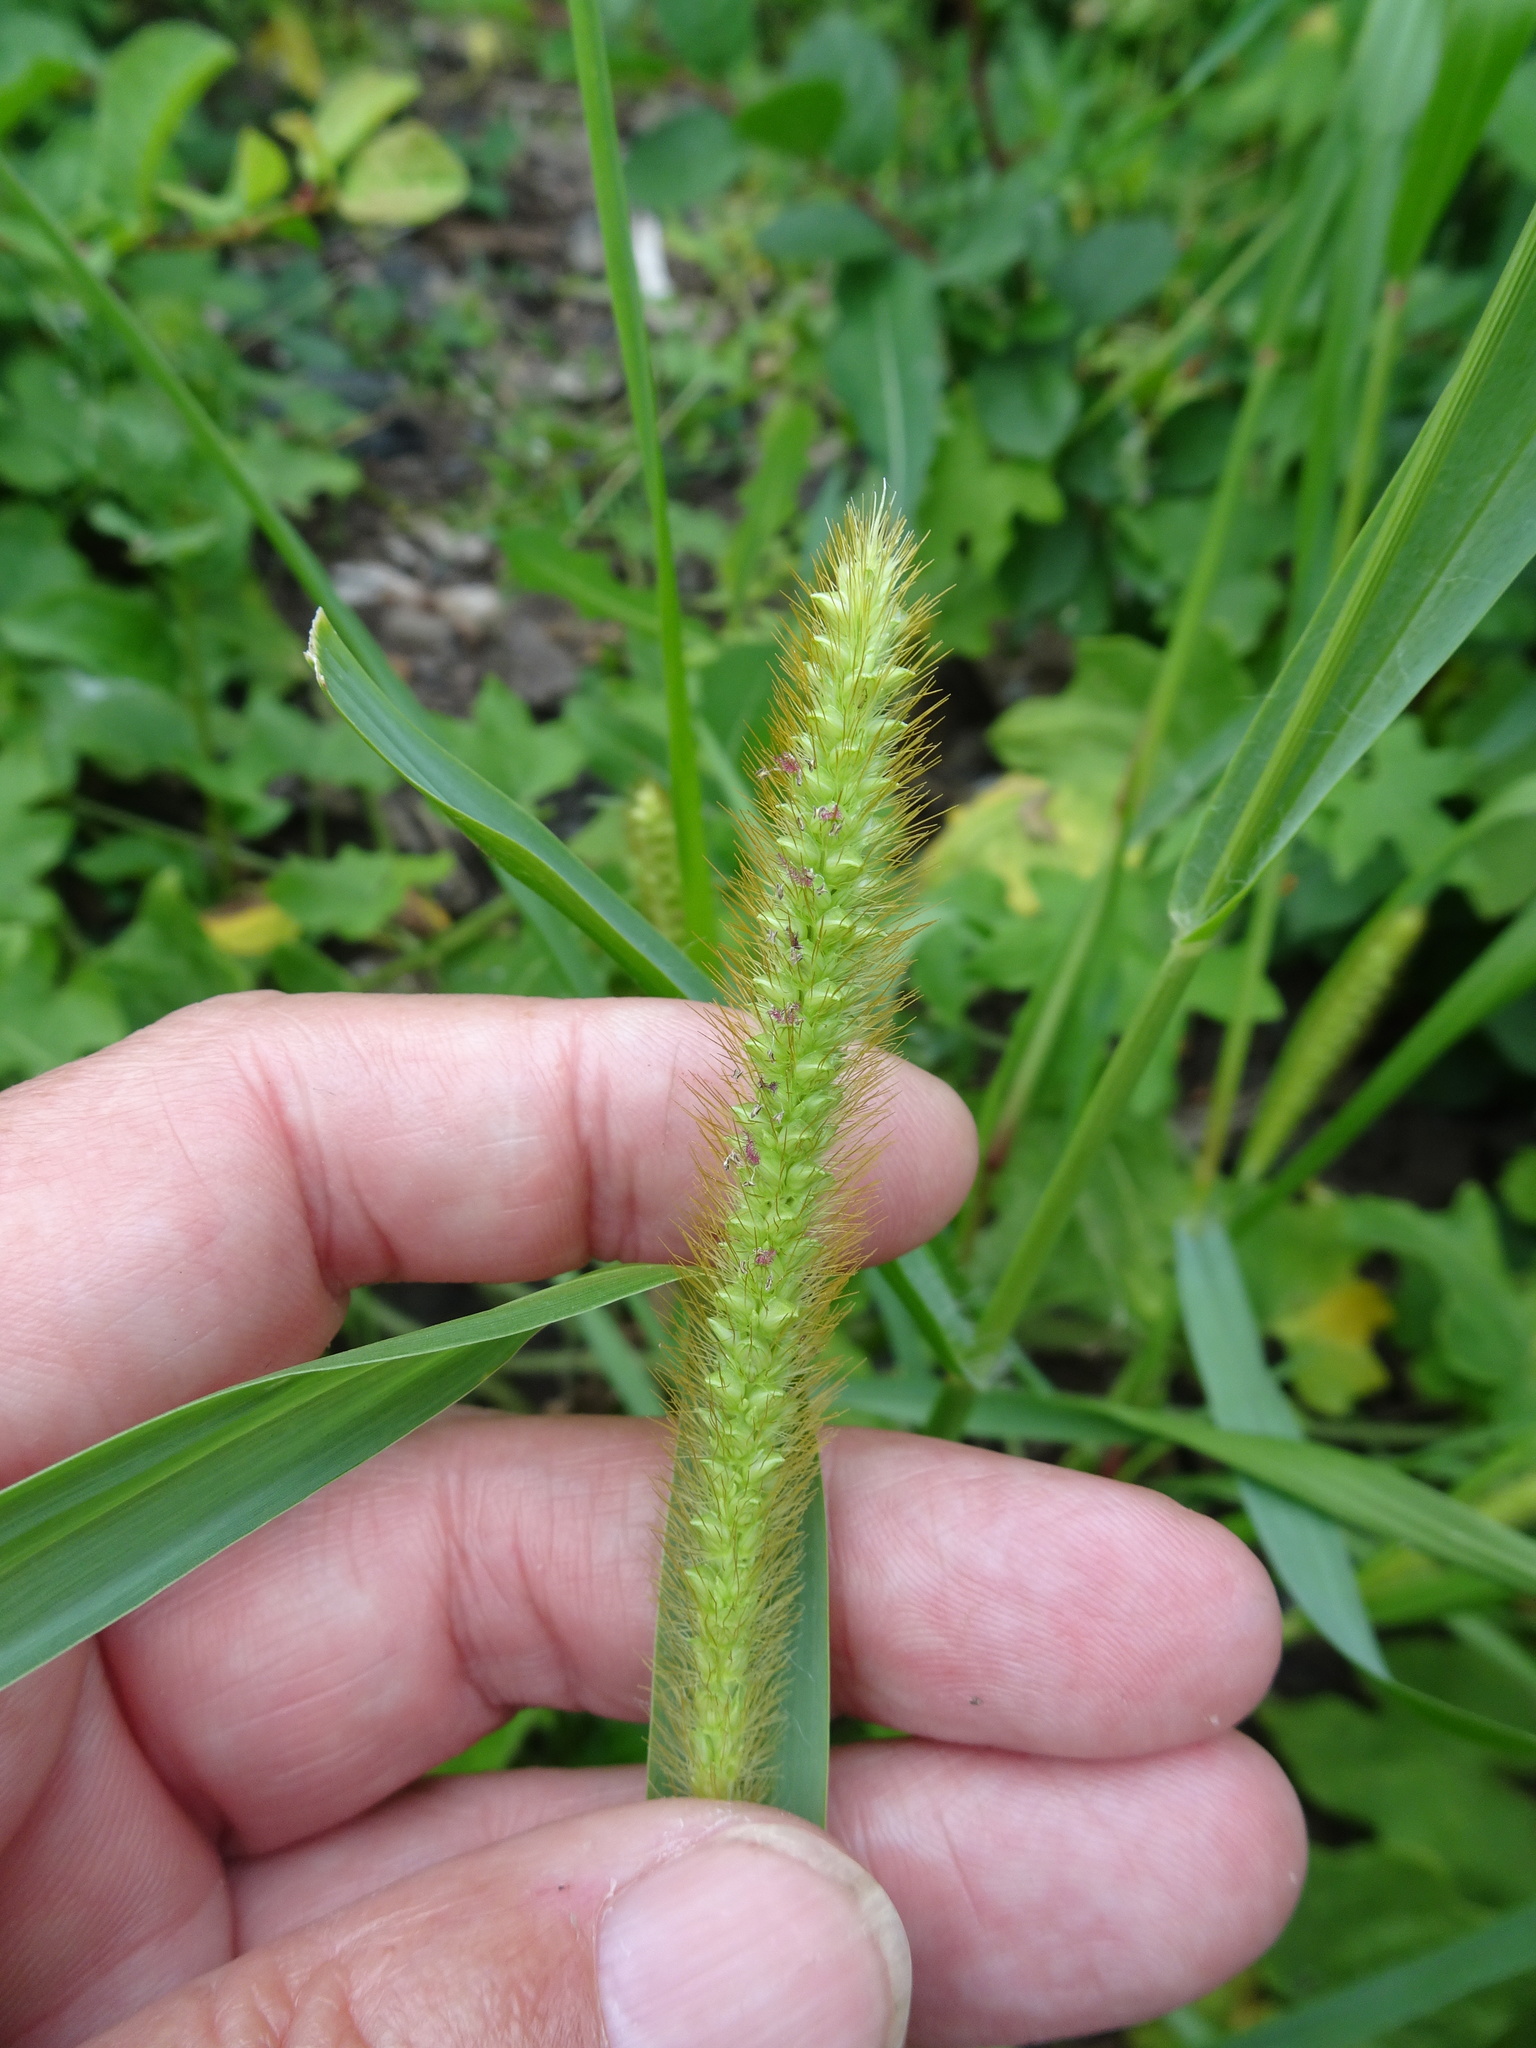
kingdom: Plantae
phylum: Tracheophyta
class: Liliopsida
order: Poales
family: Poaceae
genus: Setaria
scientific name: Setaria pumila
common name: Yellow bristle-grass
